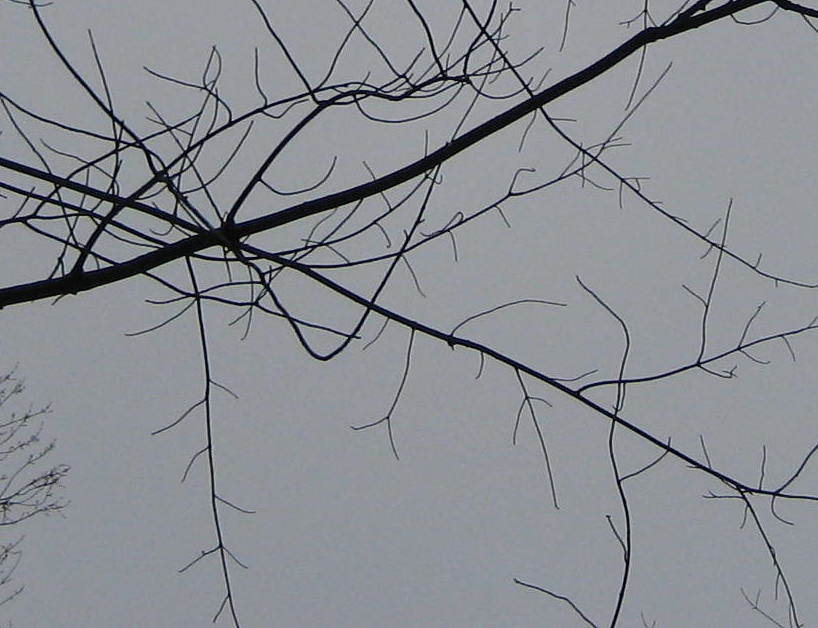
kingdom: Plantae
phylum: Tracheophyta
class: Magnoliopsida
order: Sapindales
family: Sapindaceae
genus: Acer
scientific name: Acer rubrum
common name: Red maple
